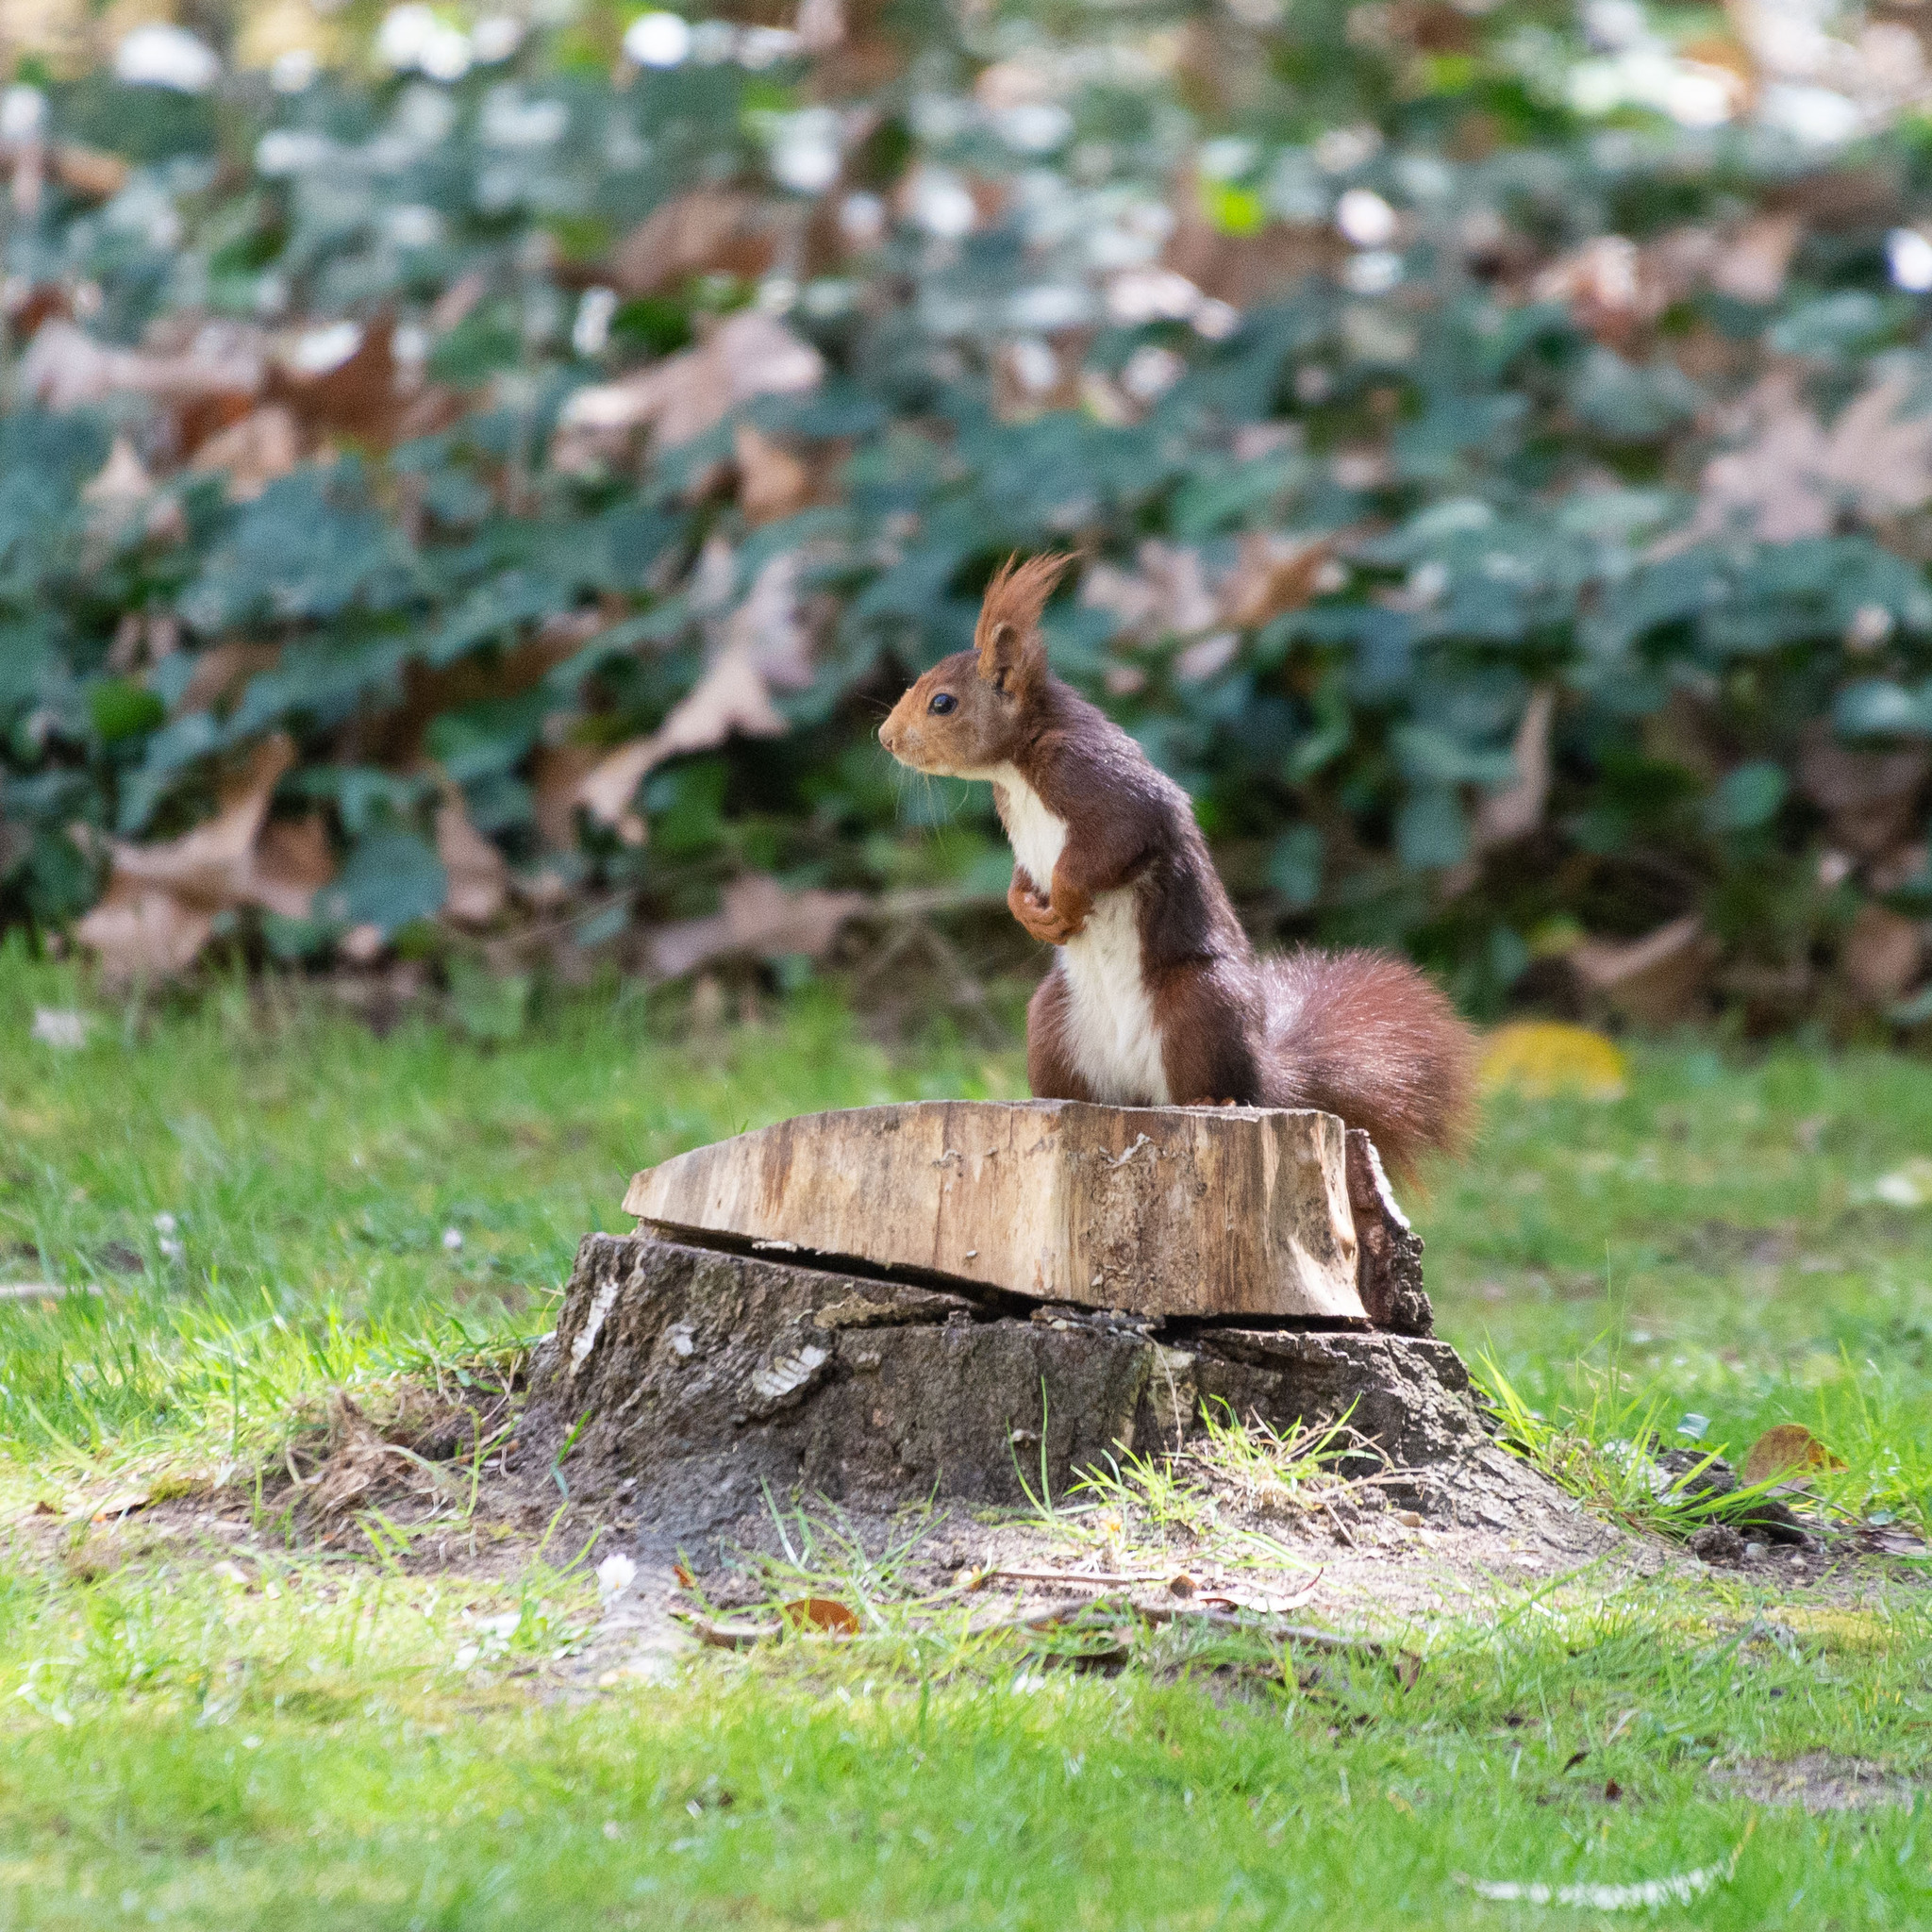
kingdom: Animalia
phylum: Chordata
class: Mammalia
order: Rodentia
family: Sciuridae
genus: Sciurus
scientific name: Sciurus vulgaris
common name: Eurasian red squirrel
